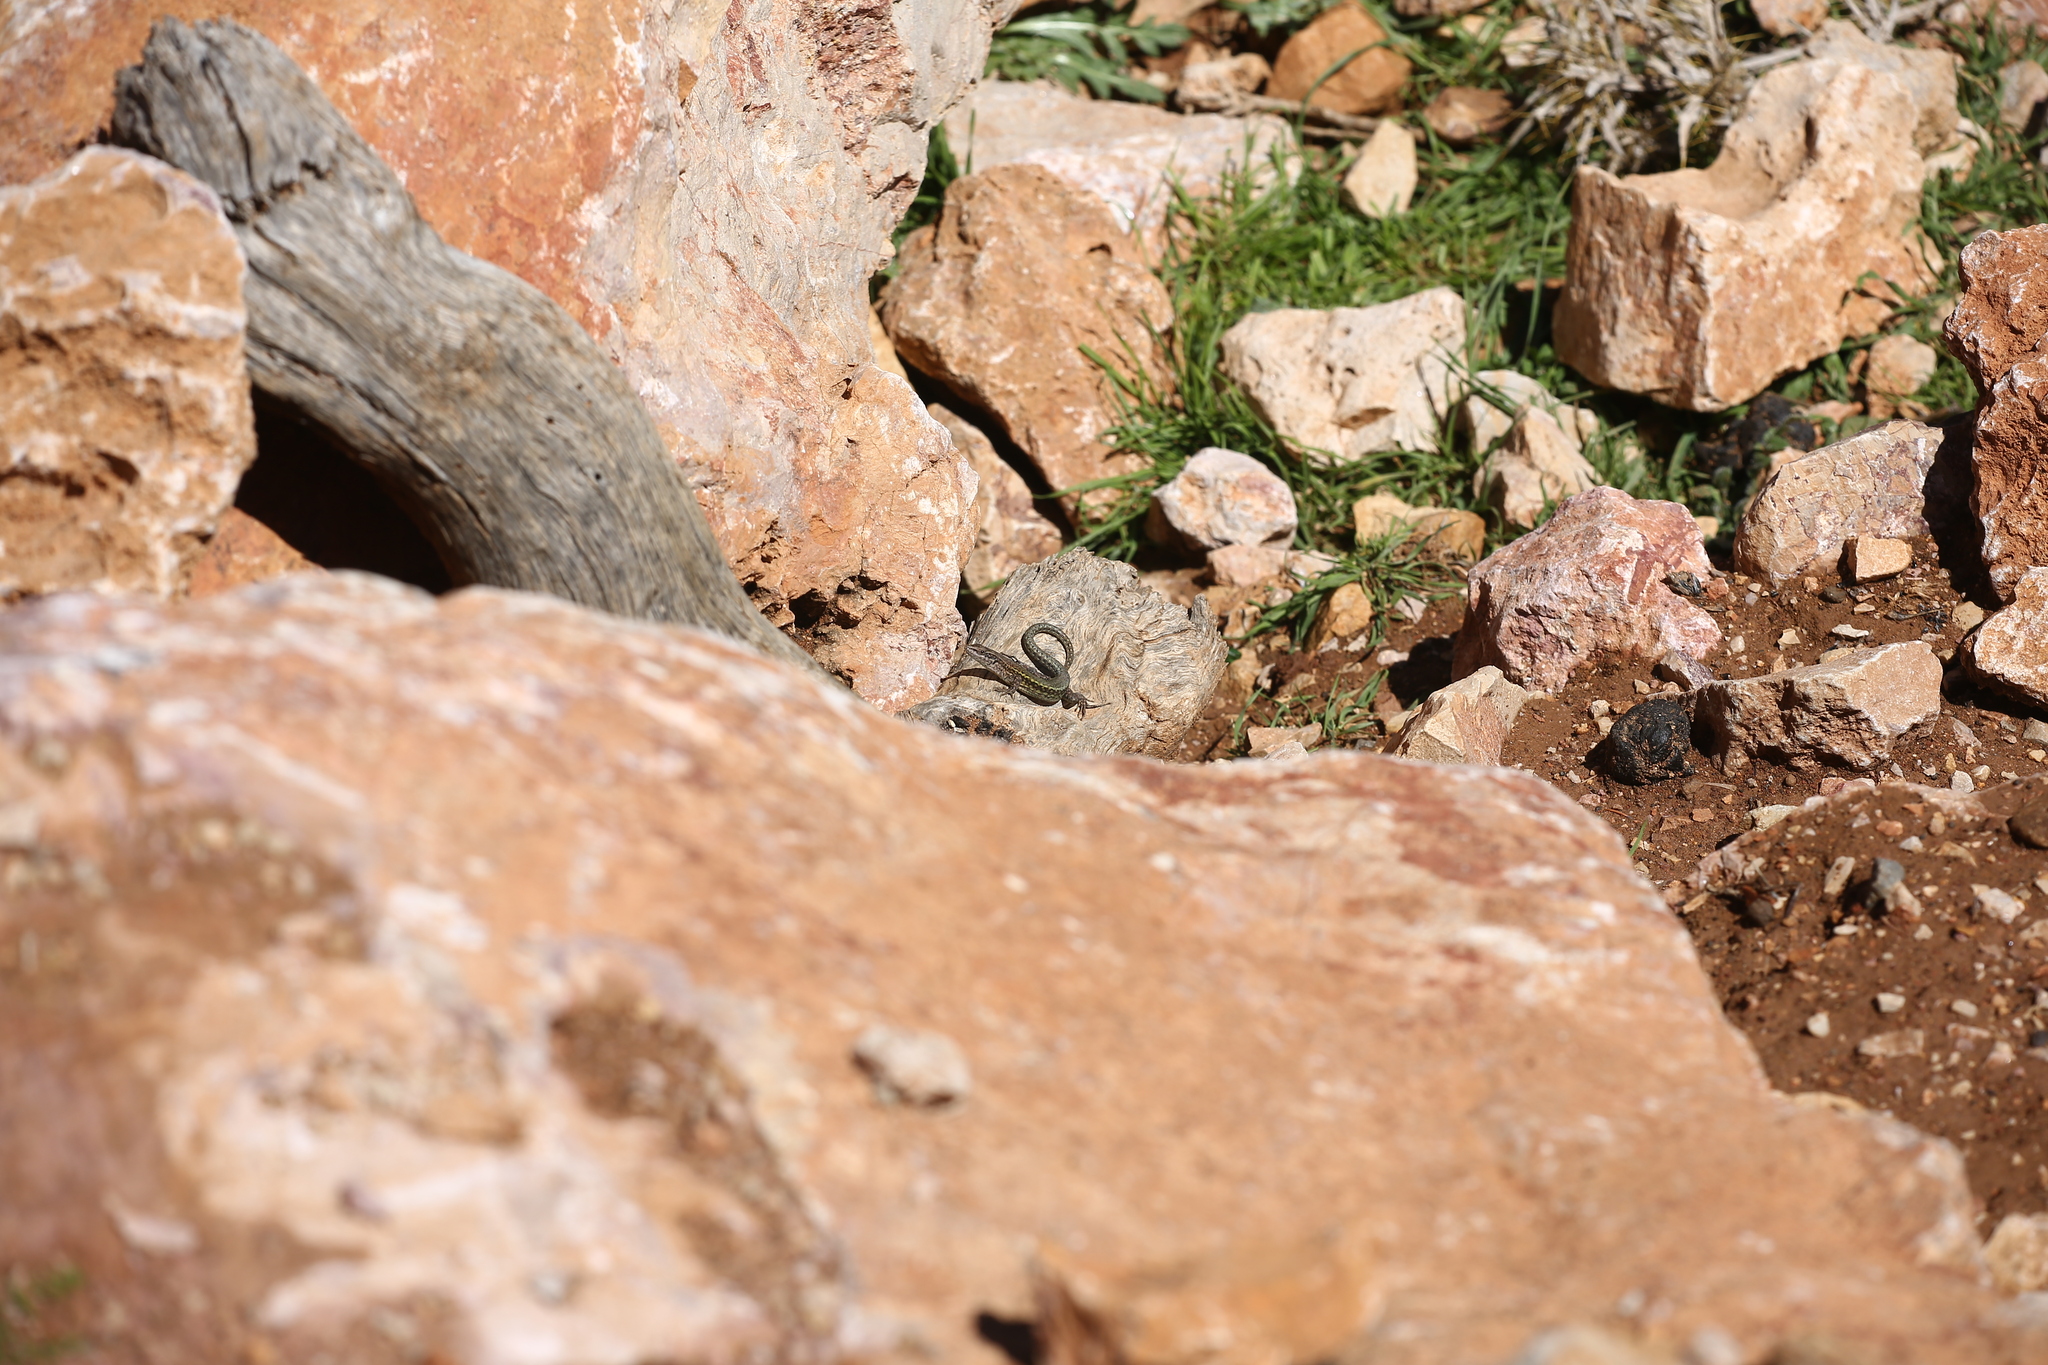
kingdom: Animalia
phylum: Chordata
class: Squamata
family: Lacertidae
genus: Podarcis
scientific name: Podarcis vaucheri
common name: Vaucher's wall lizard
